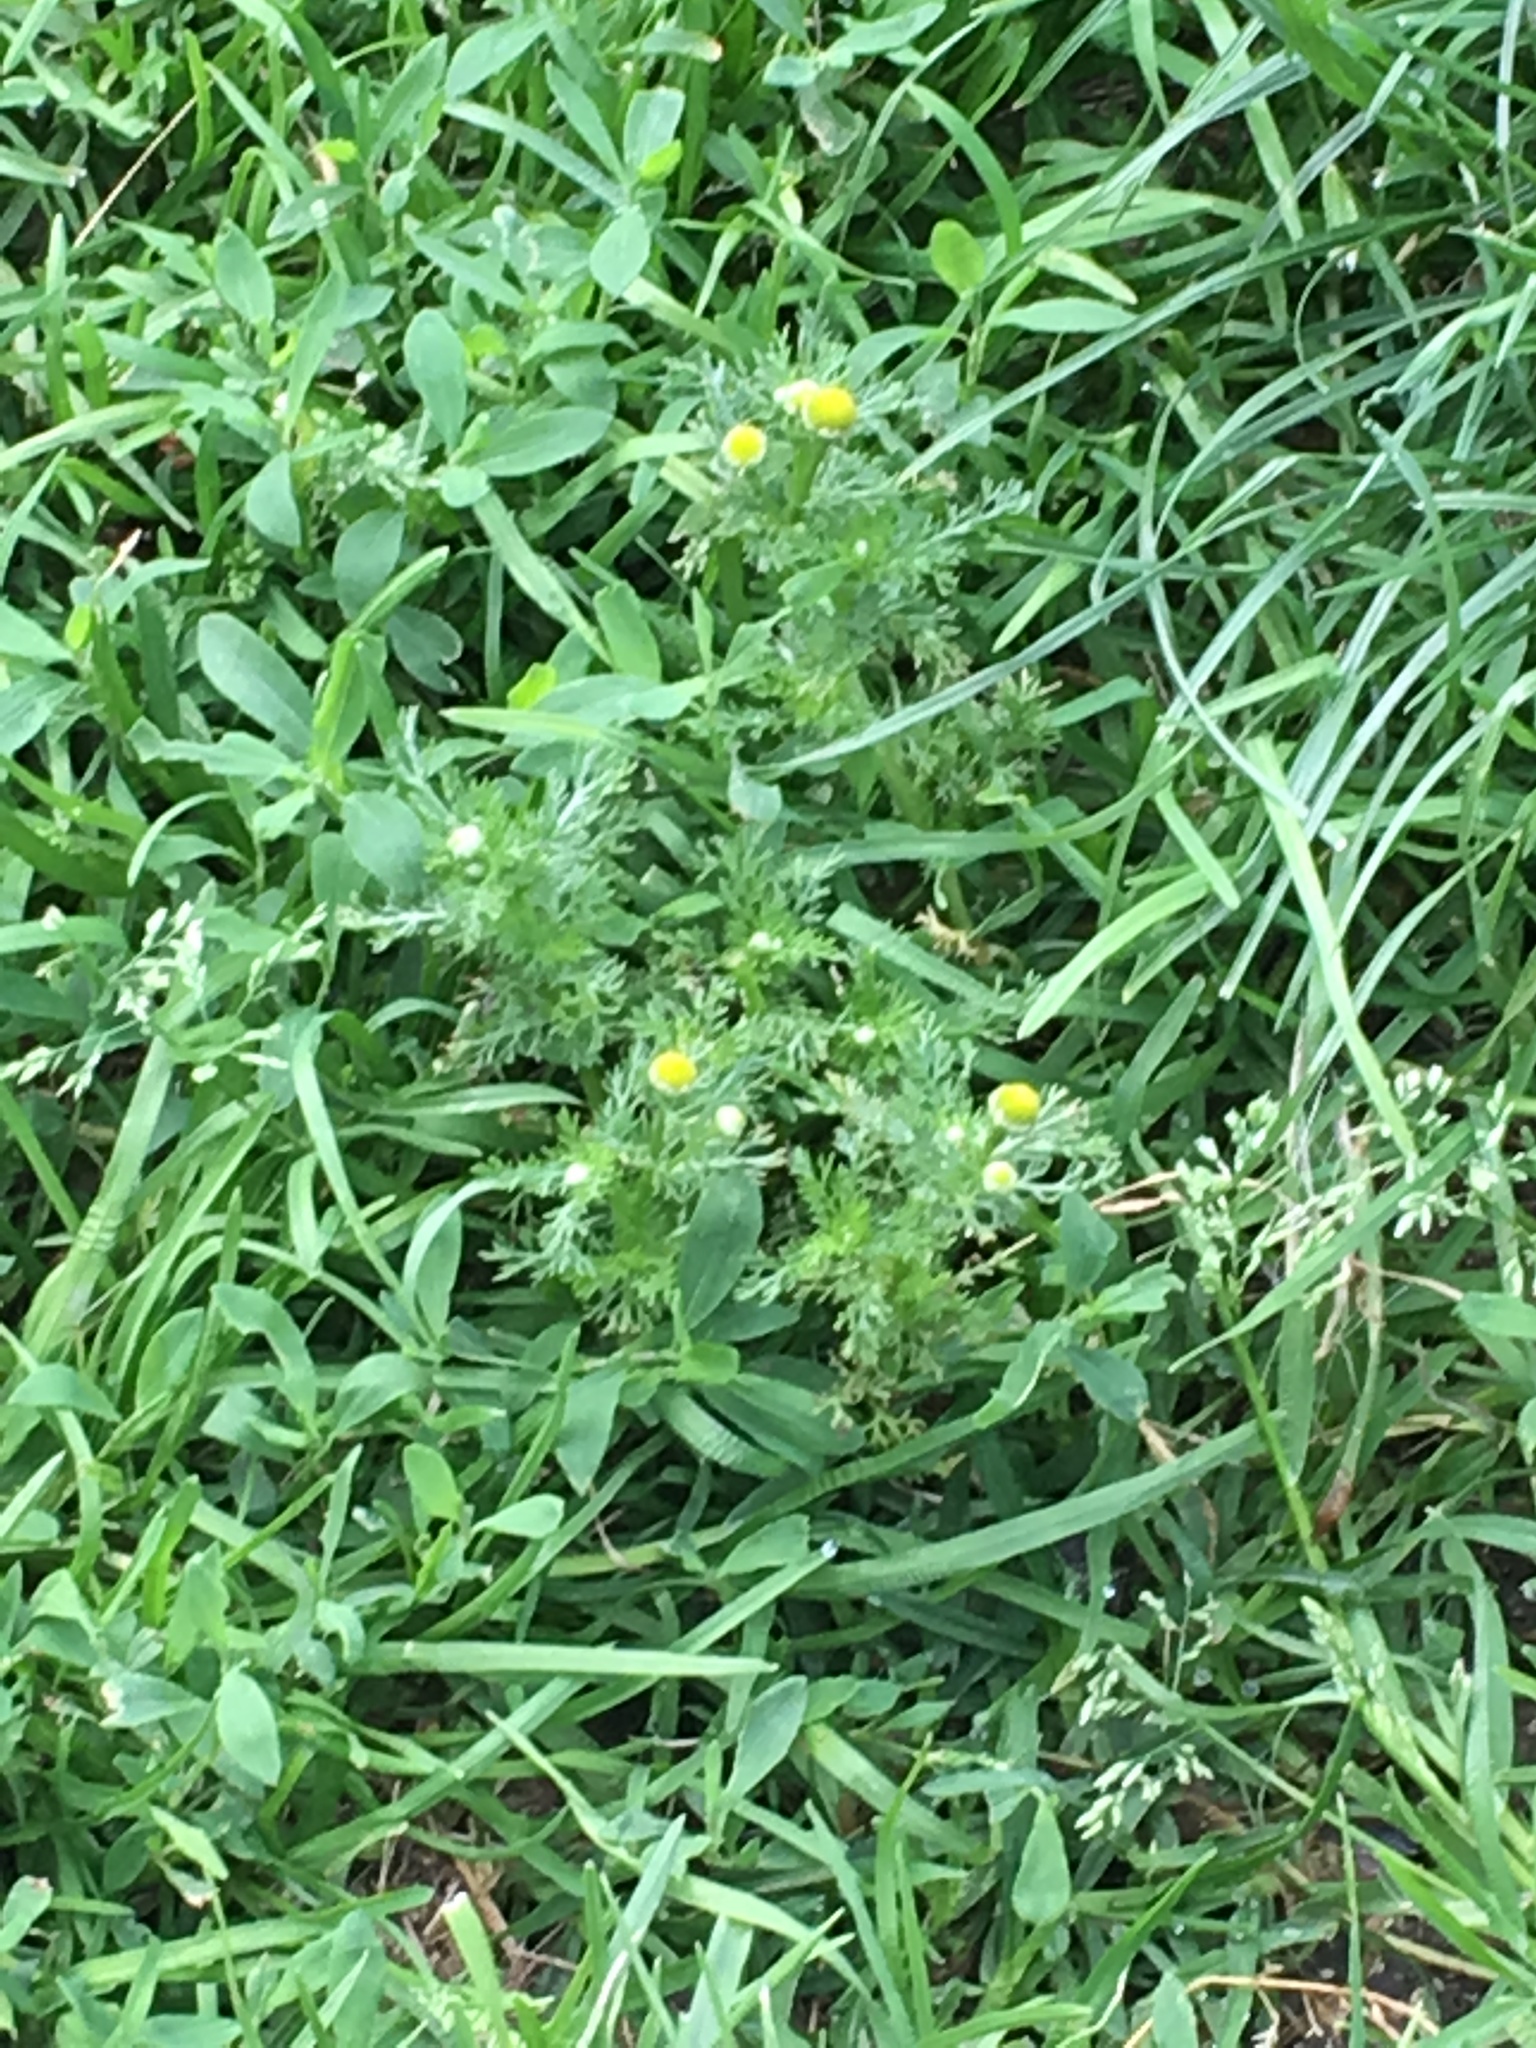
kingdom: Plantae
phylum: Tracheophyta
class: Magnoliopsida
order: Asterales
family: Asteraceae
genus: Matricaria
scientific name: Matricaria discoidea
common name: Disc mayweed
